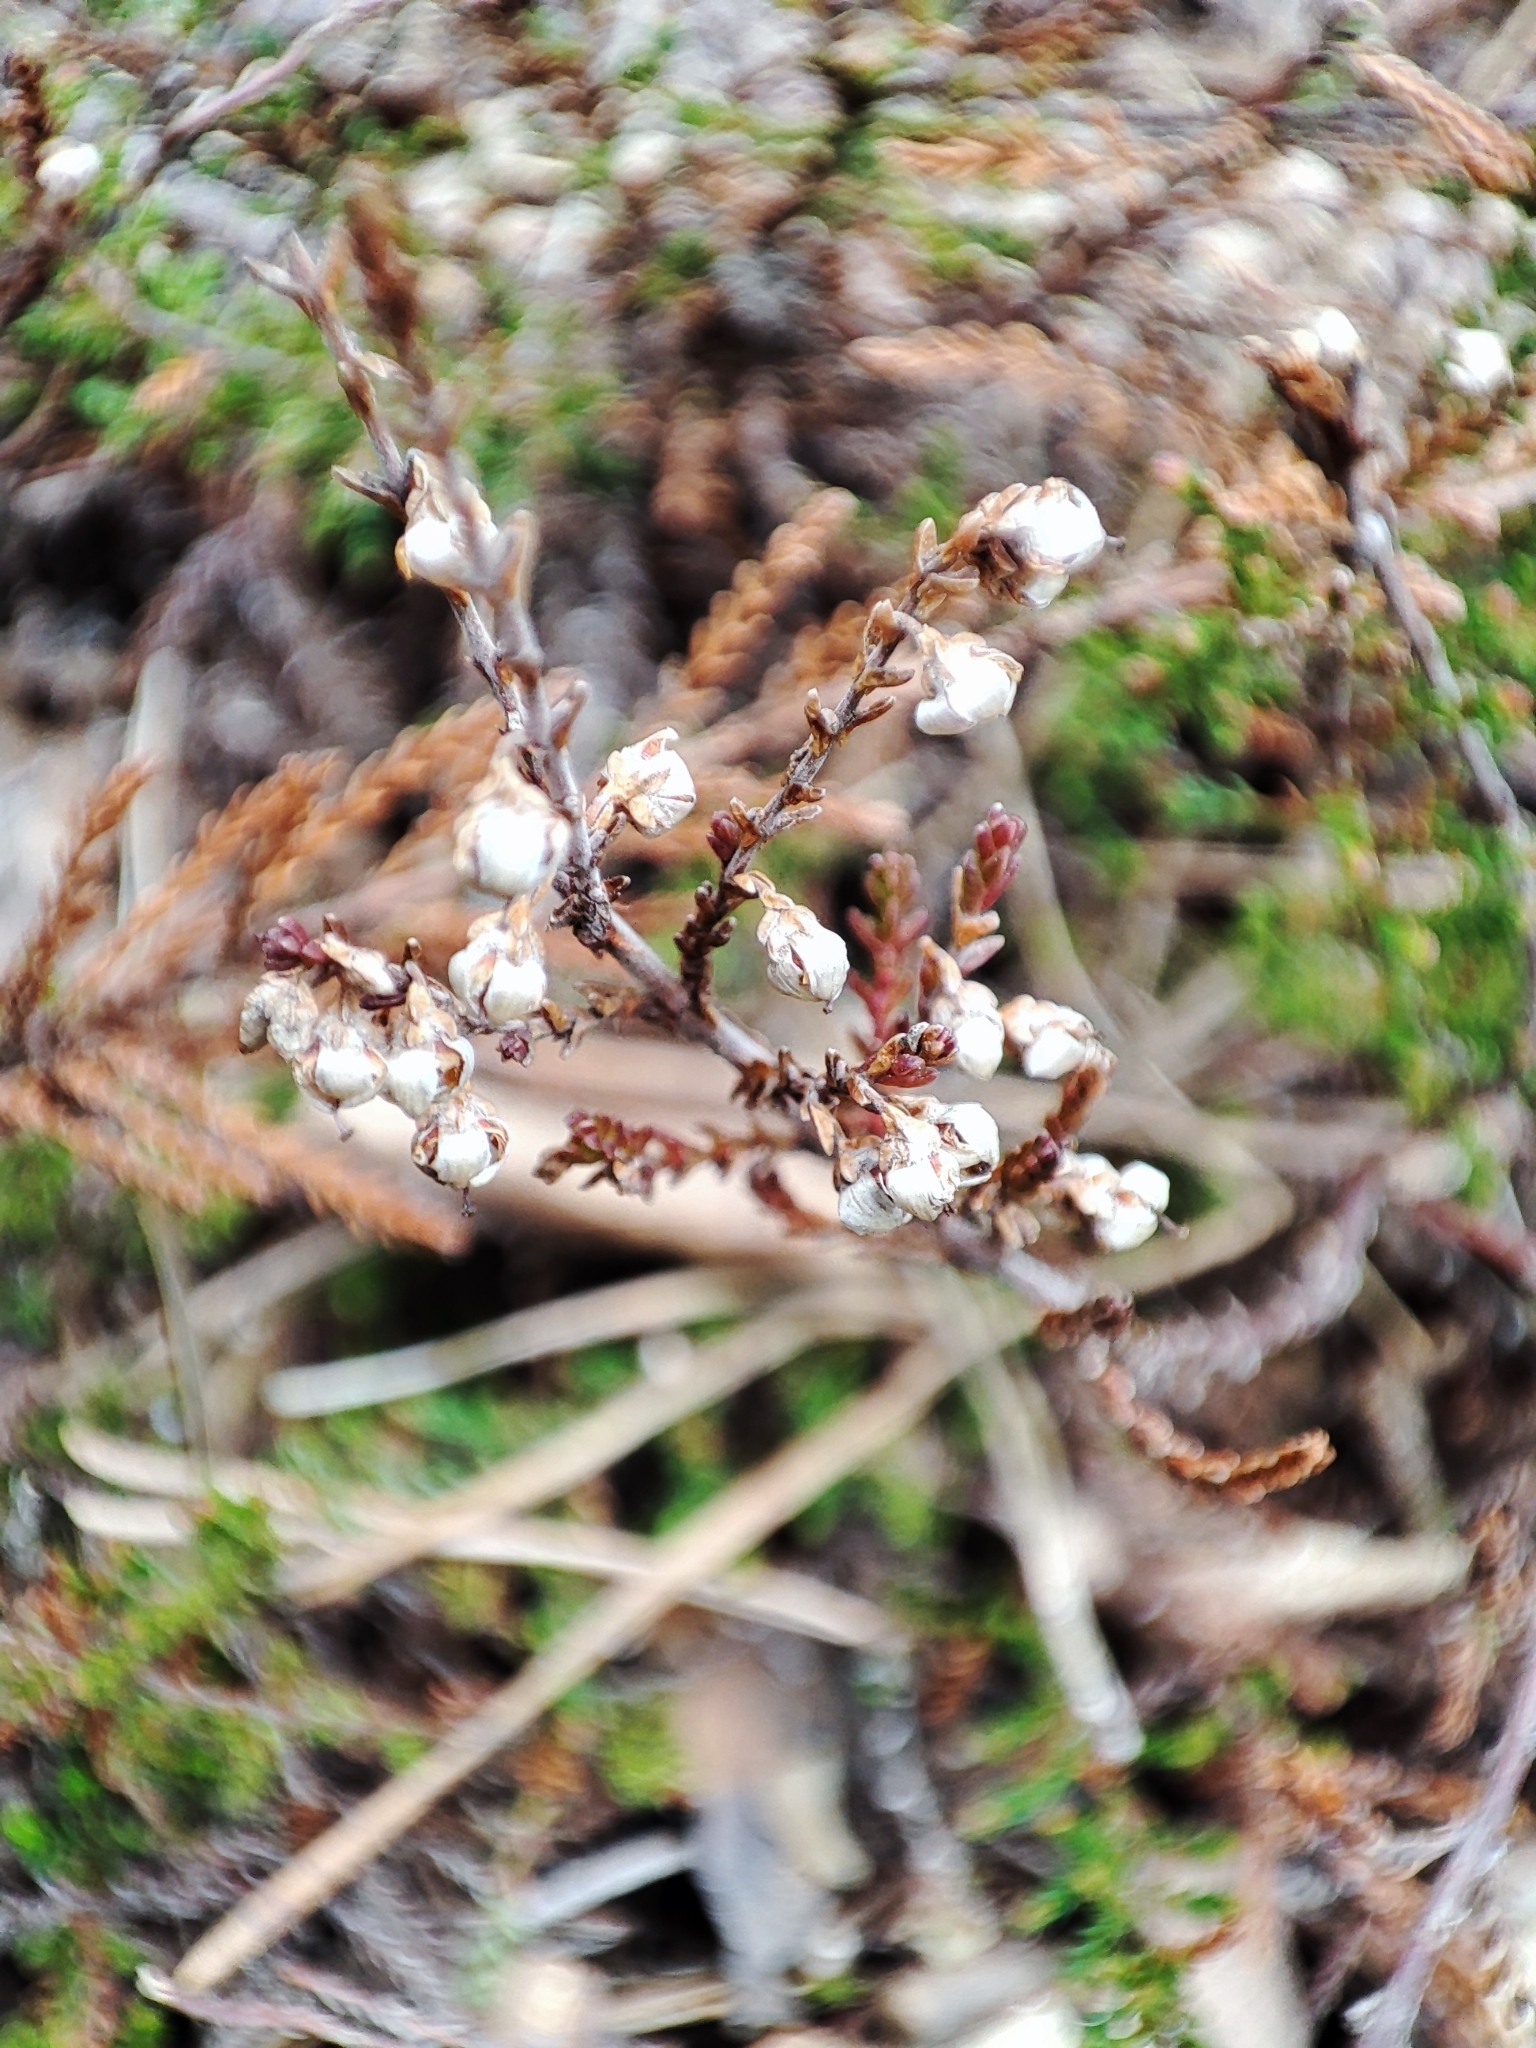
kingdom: Plantae
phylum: Tracheophyta
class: Magnoliopsida
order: Ericales
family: Ericaceae
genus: Calluna
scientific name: Calluna vulgaris
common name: Heather
